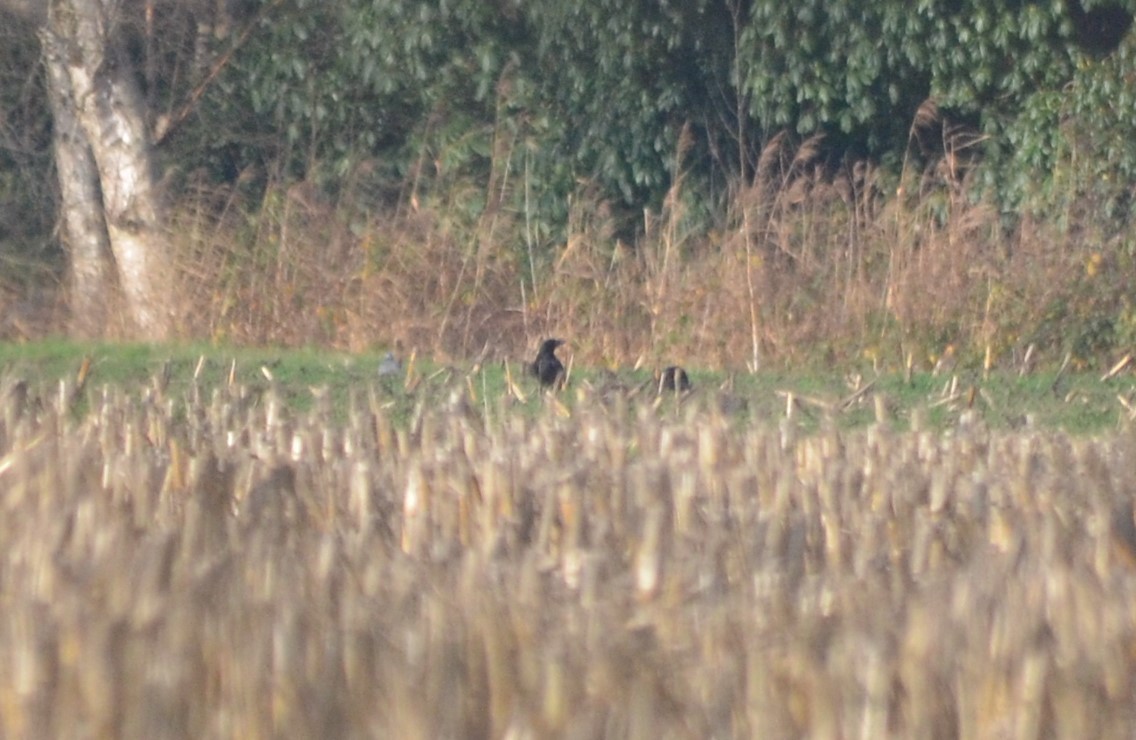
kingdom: Animalia
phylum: Chordata
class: Aves
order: Passeriformes
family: Corvidae
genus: Corvus
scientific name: Corvus corone
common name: Carrion crow
